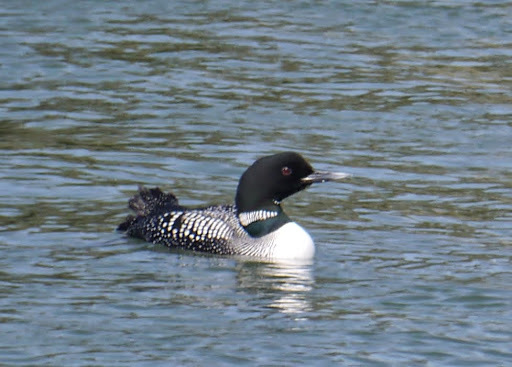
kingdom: Animalia
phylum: Chordata
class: Aves
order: Gaviiformes
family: Gaviidae
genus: Gavia
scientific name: Gavia immer
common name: Common loon
